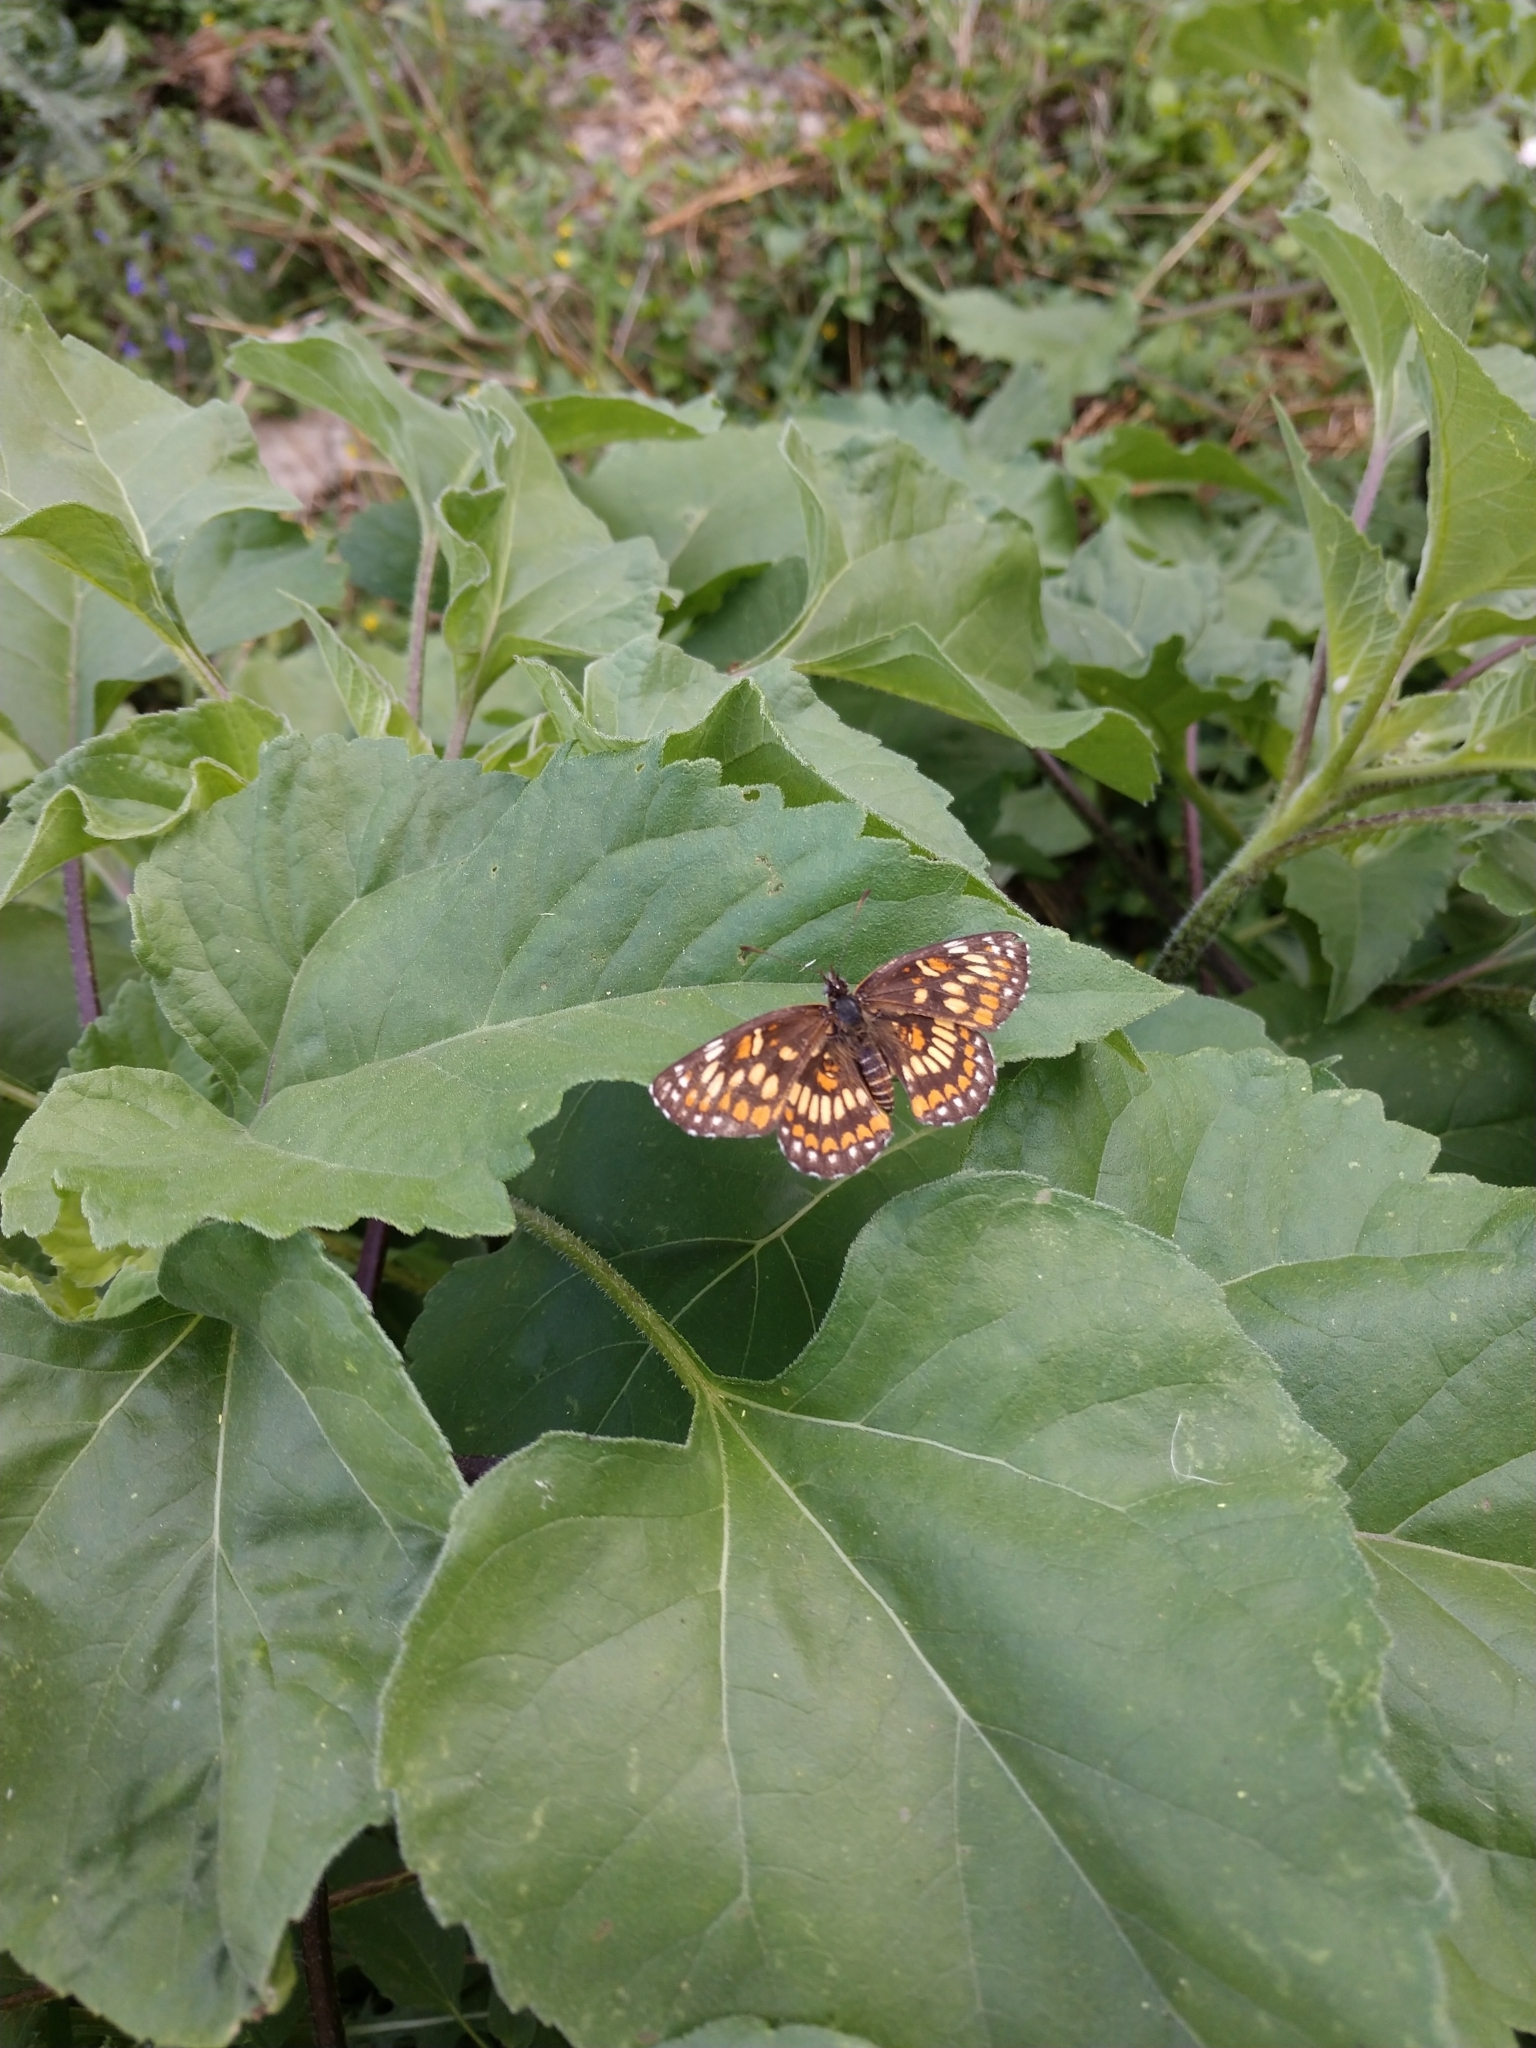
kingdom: Animalia
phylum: Arthropoda
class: Insecta
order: Lepidoptera
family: Nymphalidae
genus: Thessalia
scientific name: Thessalia theona
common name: Nymphalid moth
